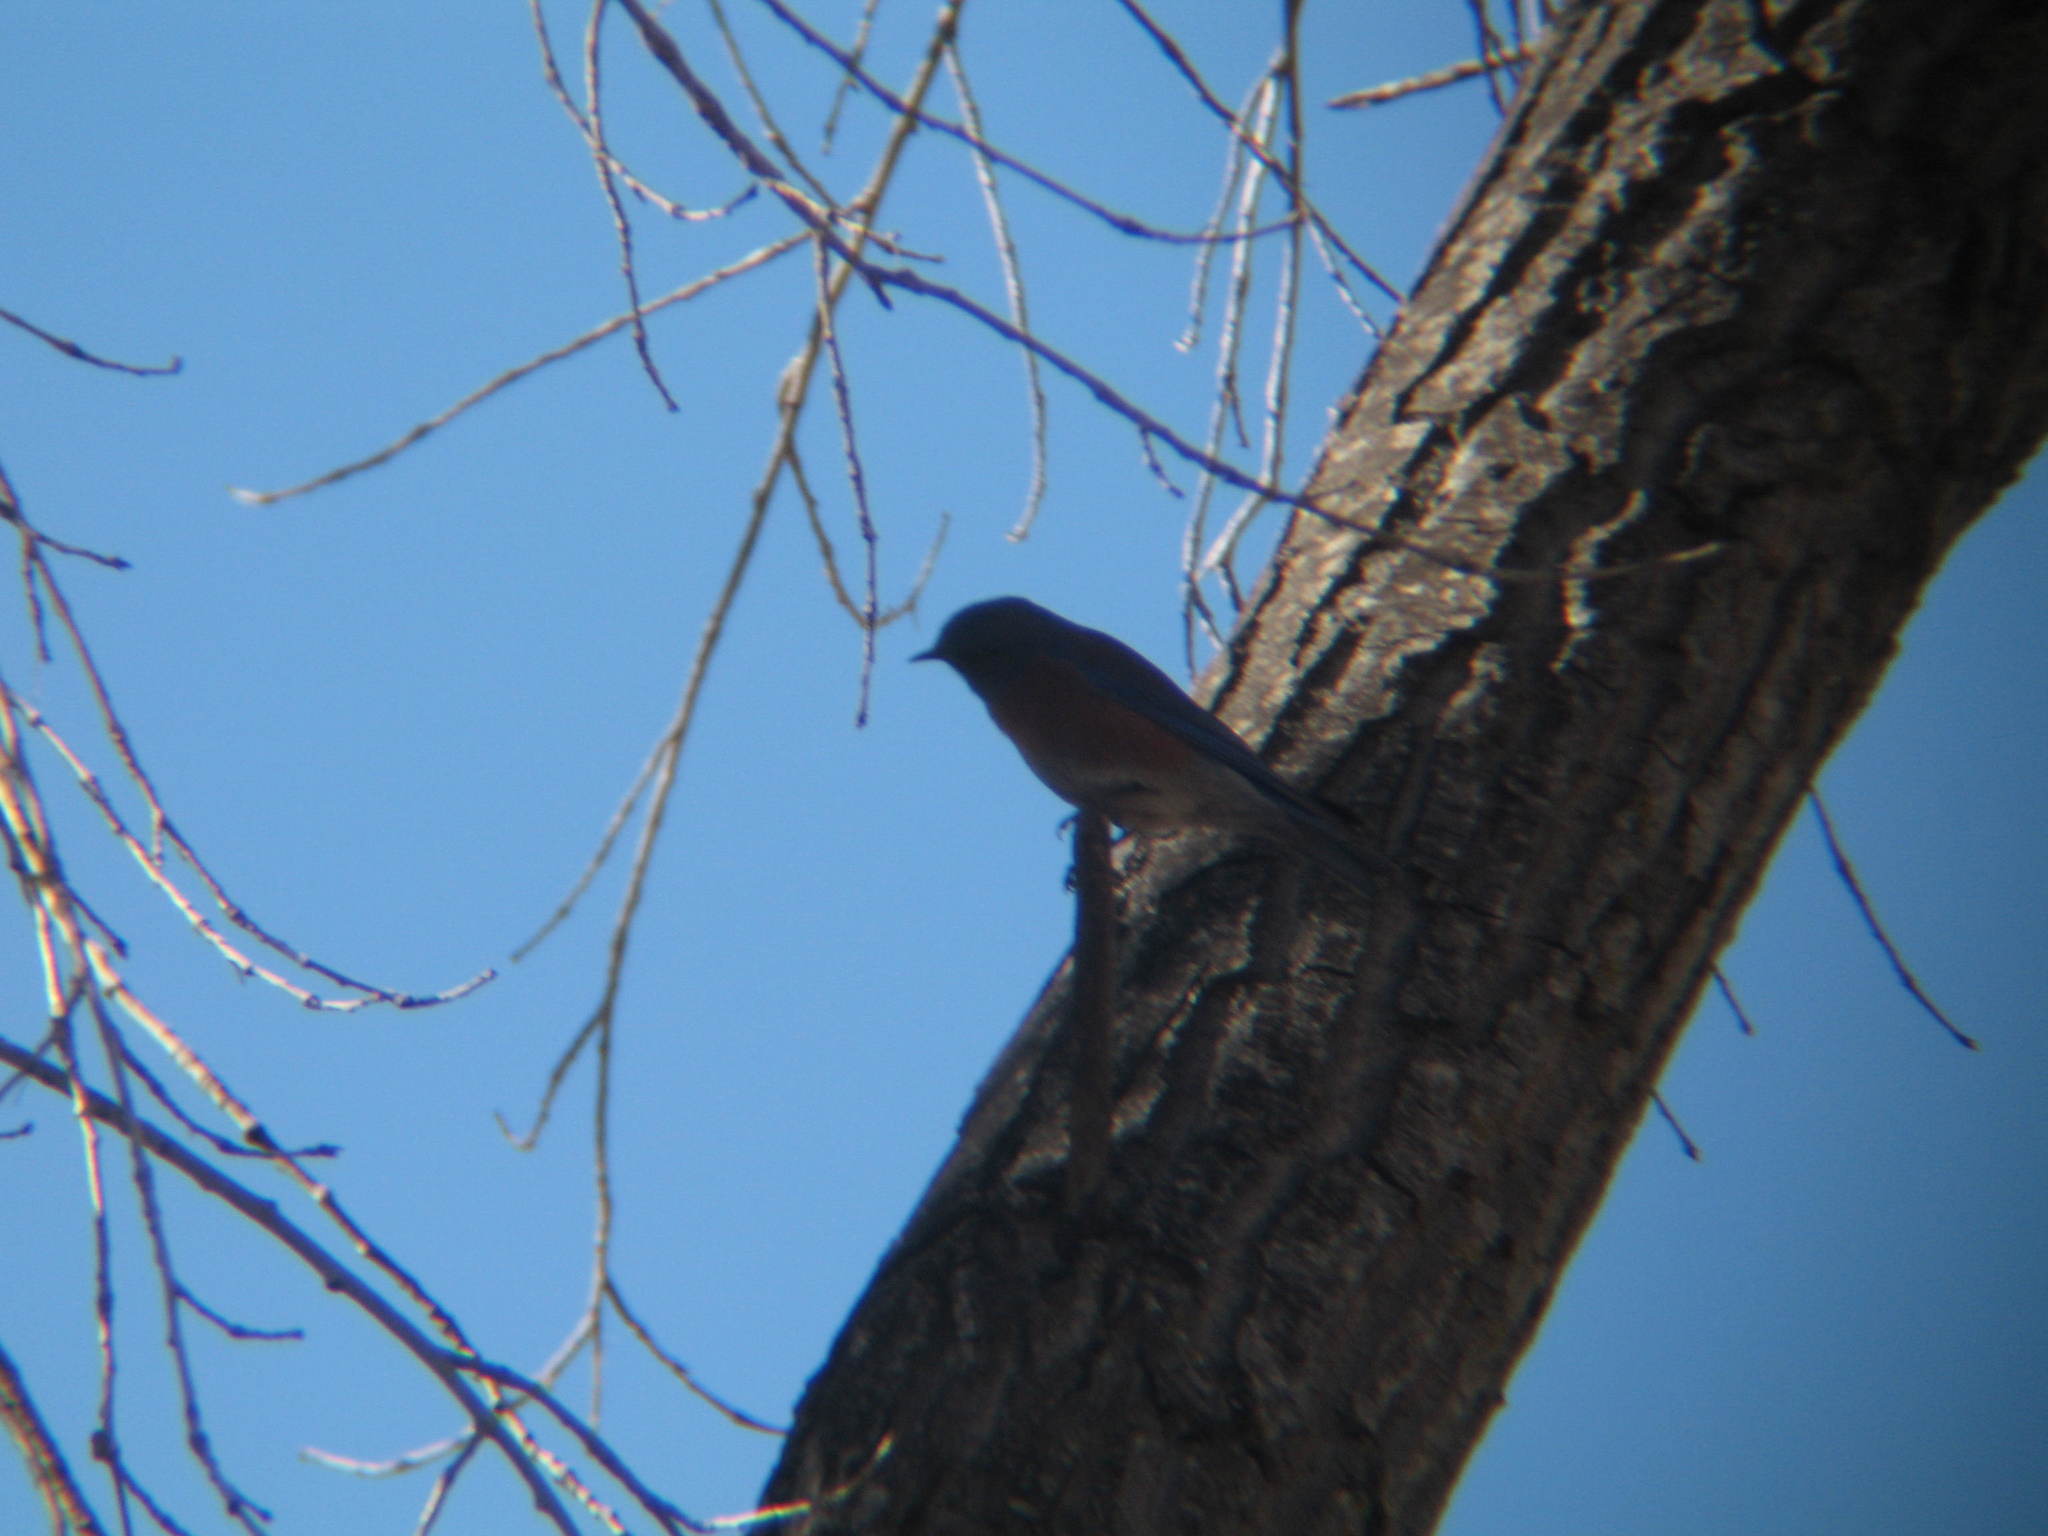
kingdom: Animalia
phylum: Chordata
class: Aves
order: Passeriformes
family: Turdidae
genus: Sialia
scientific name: Sialia mexicana
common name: Western bluebird
